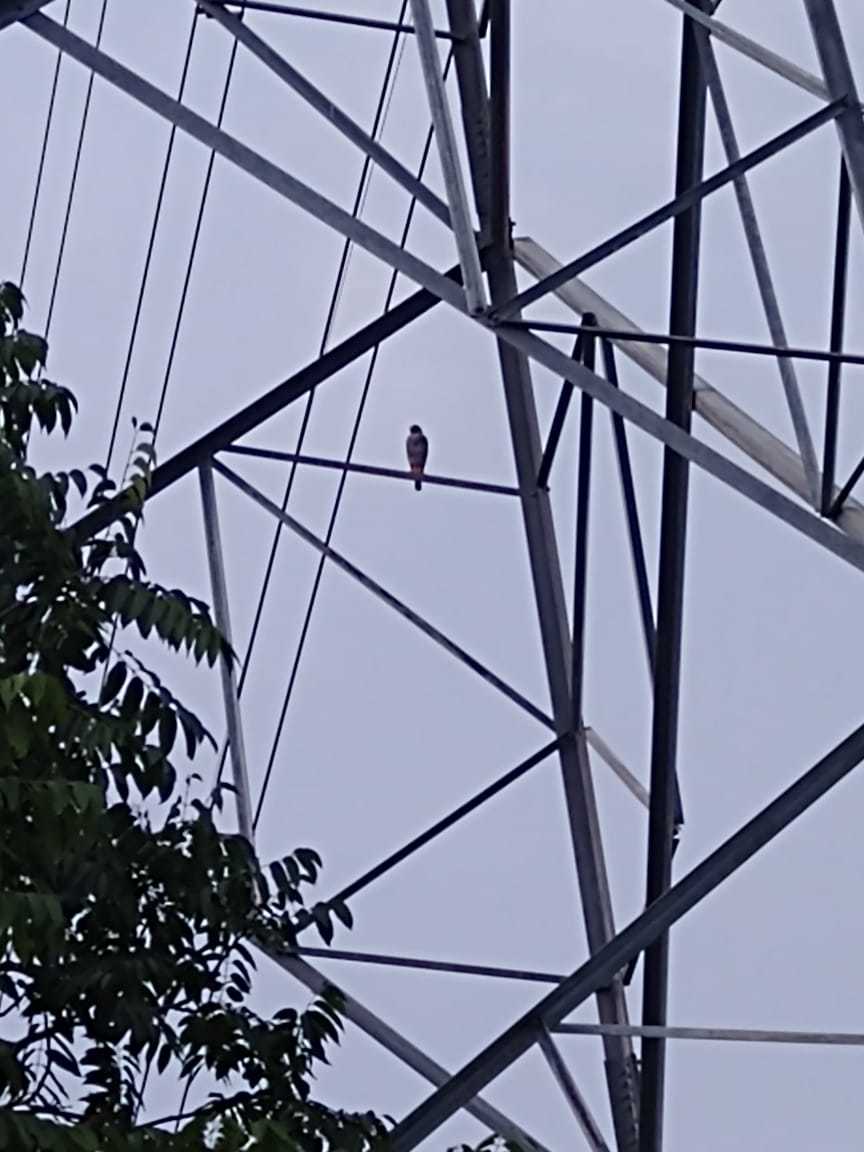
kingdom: Animalia
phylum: Chordata
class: Aves
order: Accipitriformes
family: Accipitridae
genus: Buteo
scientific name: Buteo nitidus
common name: Grey-lined hawk
